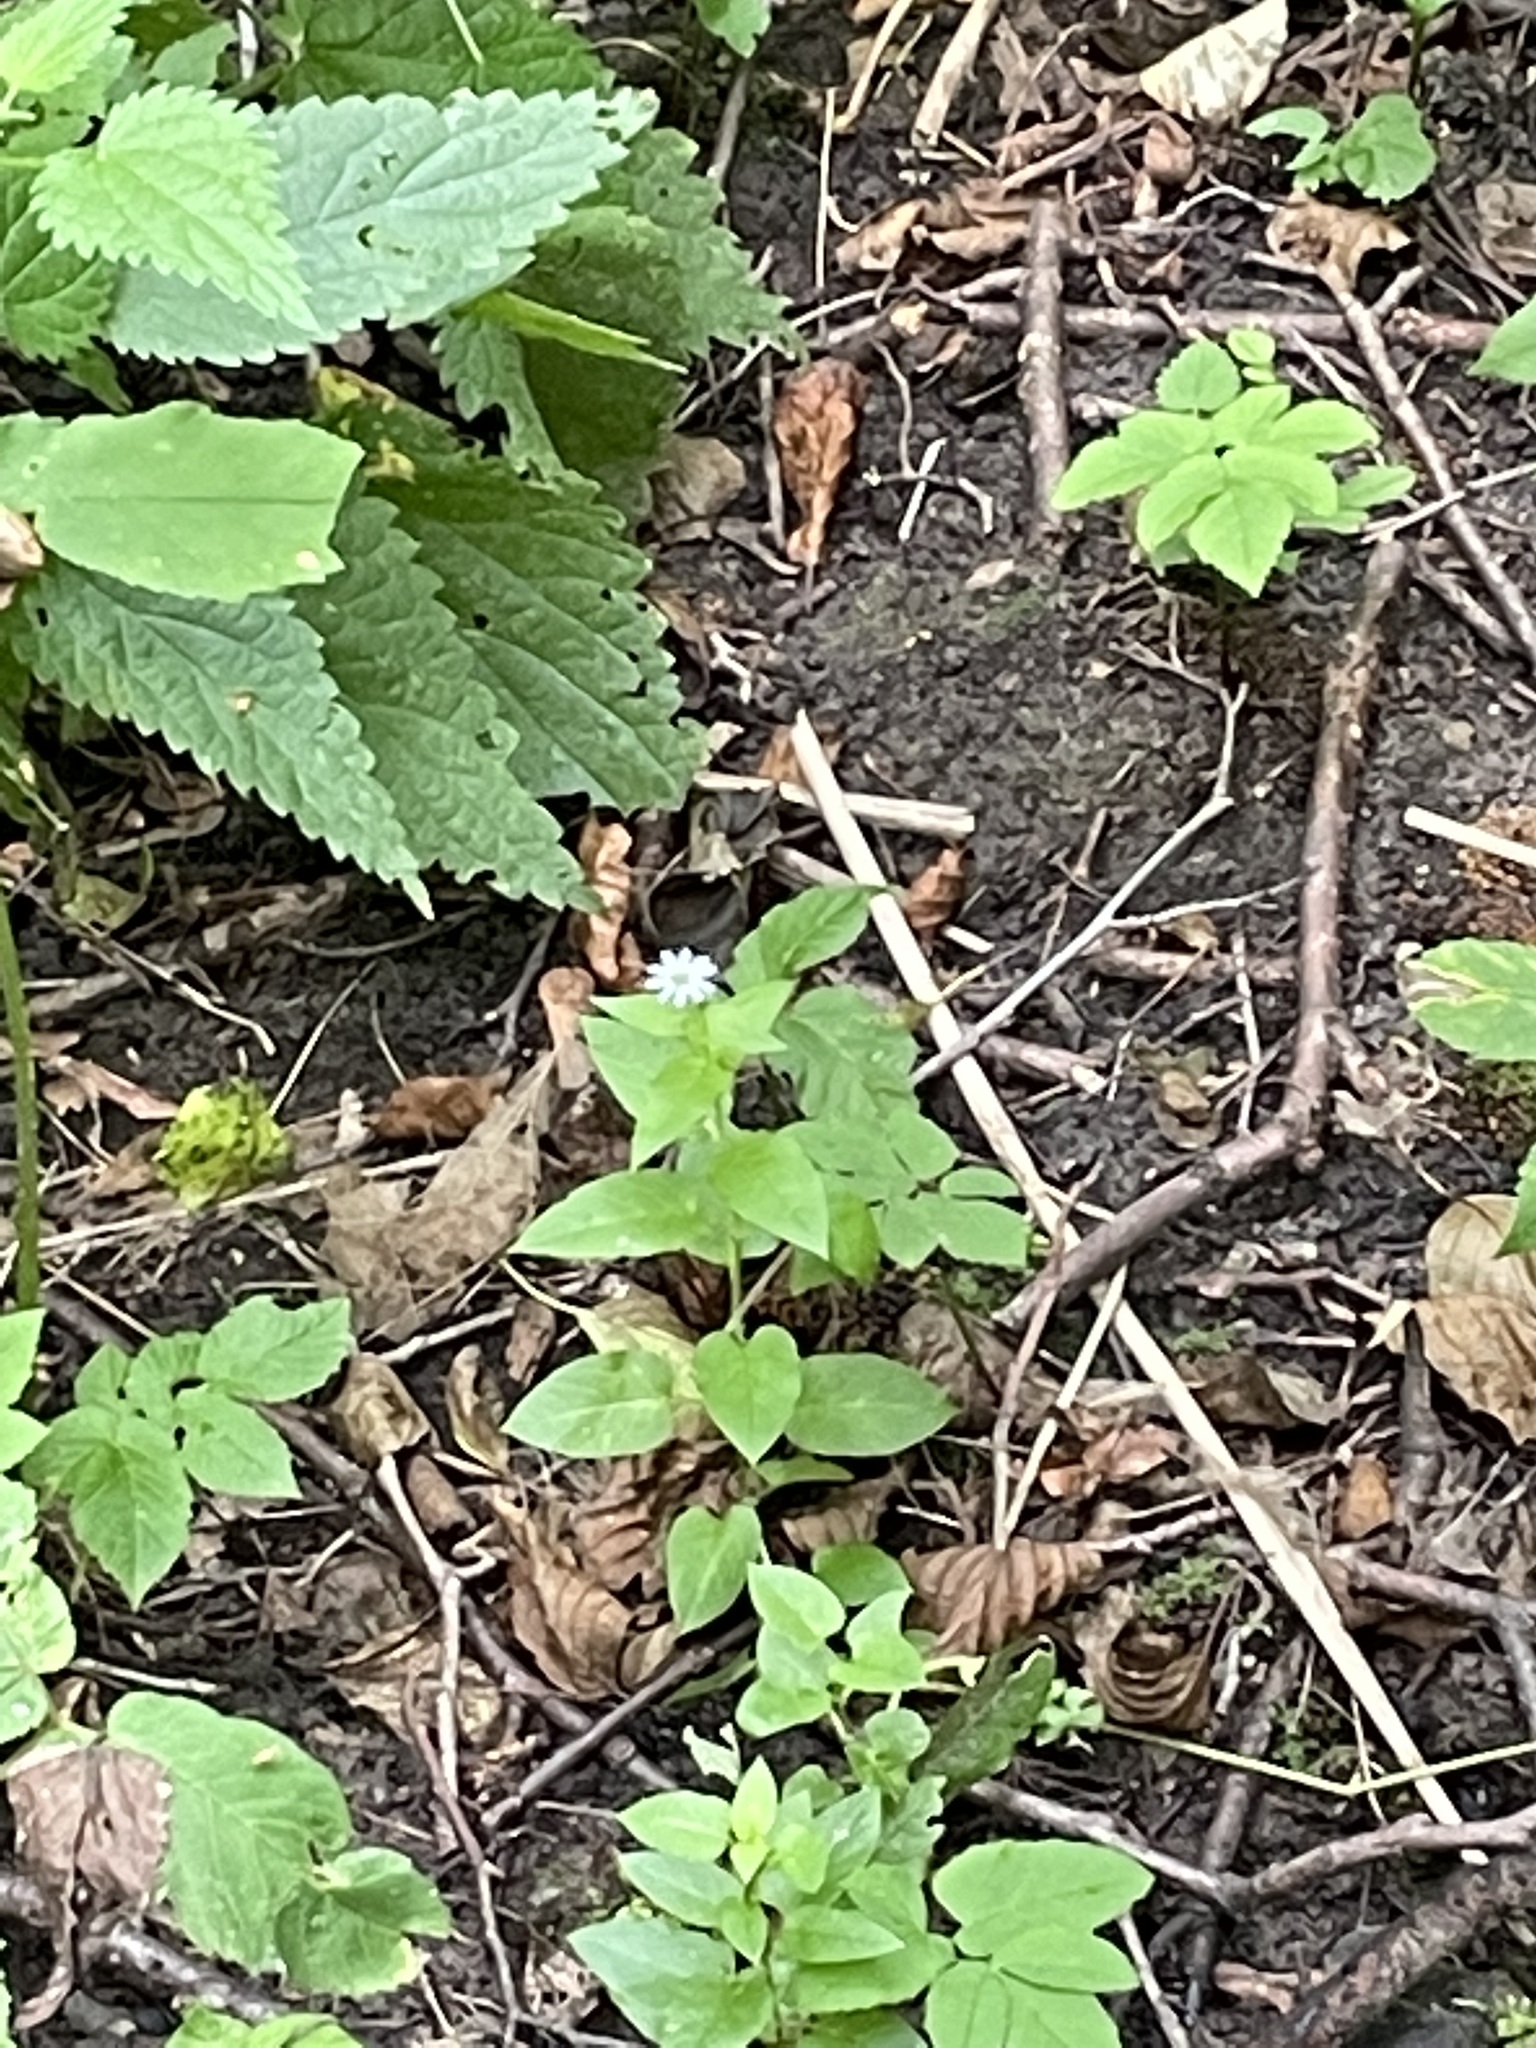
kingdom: Plantae
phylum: Tracheophyta
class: Magnoliopsida
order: Caryophyllales
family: Caryophyllaceae
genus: Stellaria
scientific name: Stellaria aquatica
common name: Water chickweed
